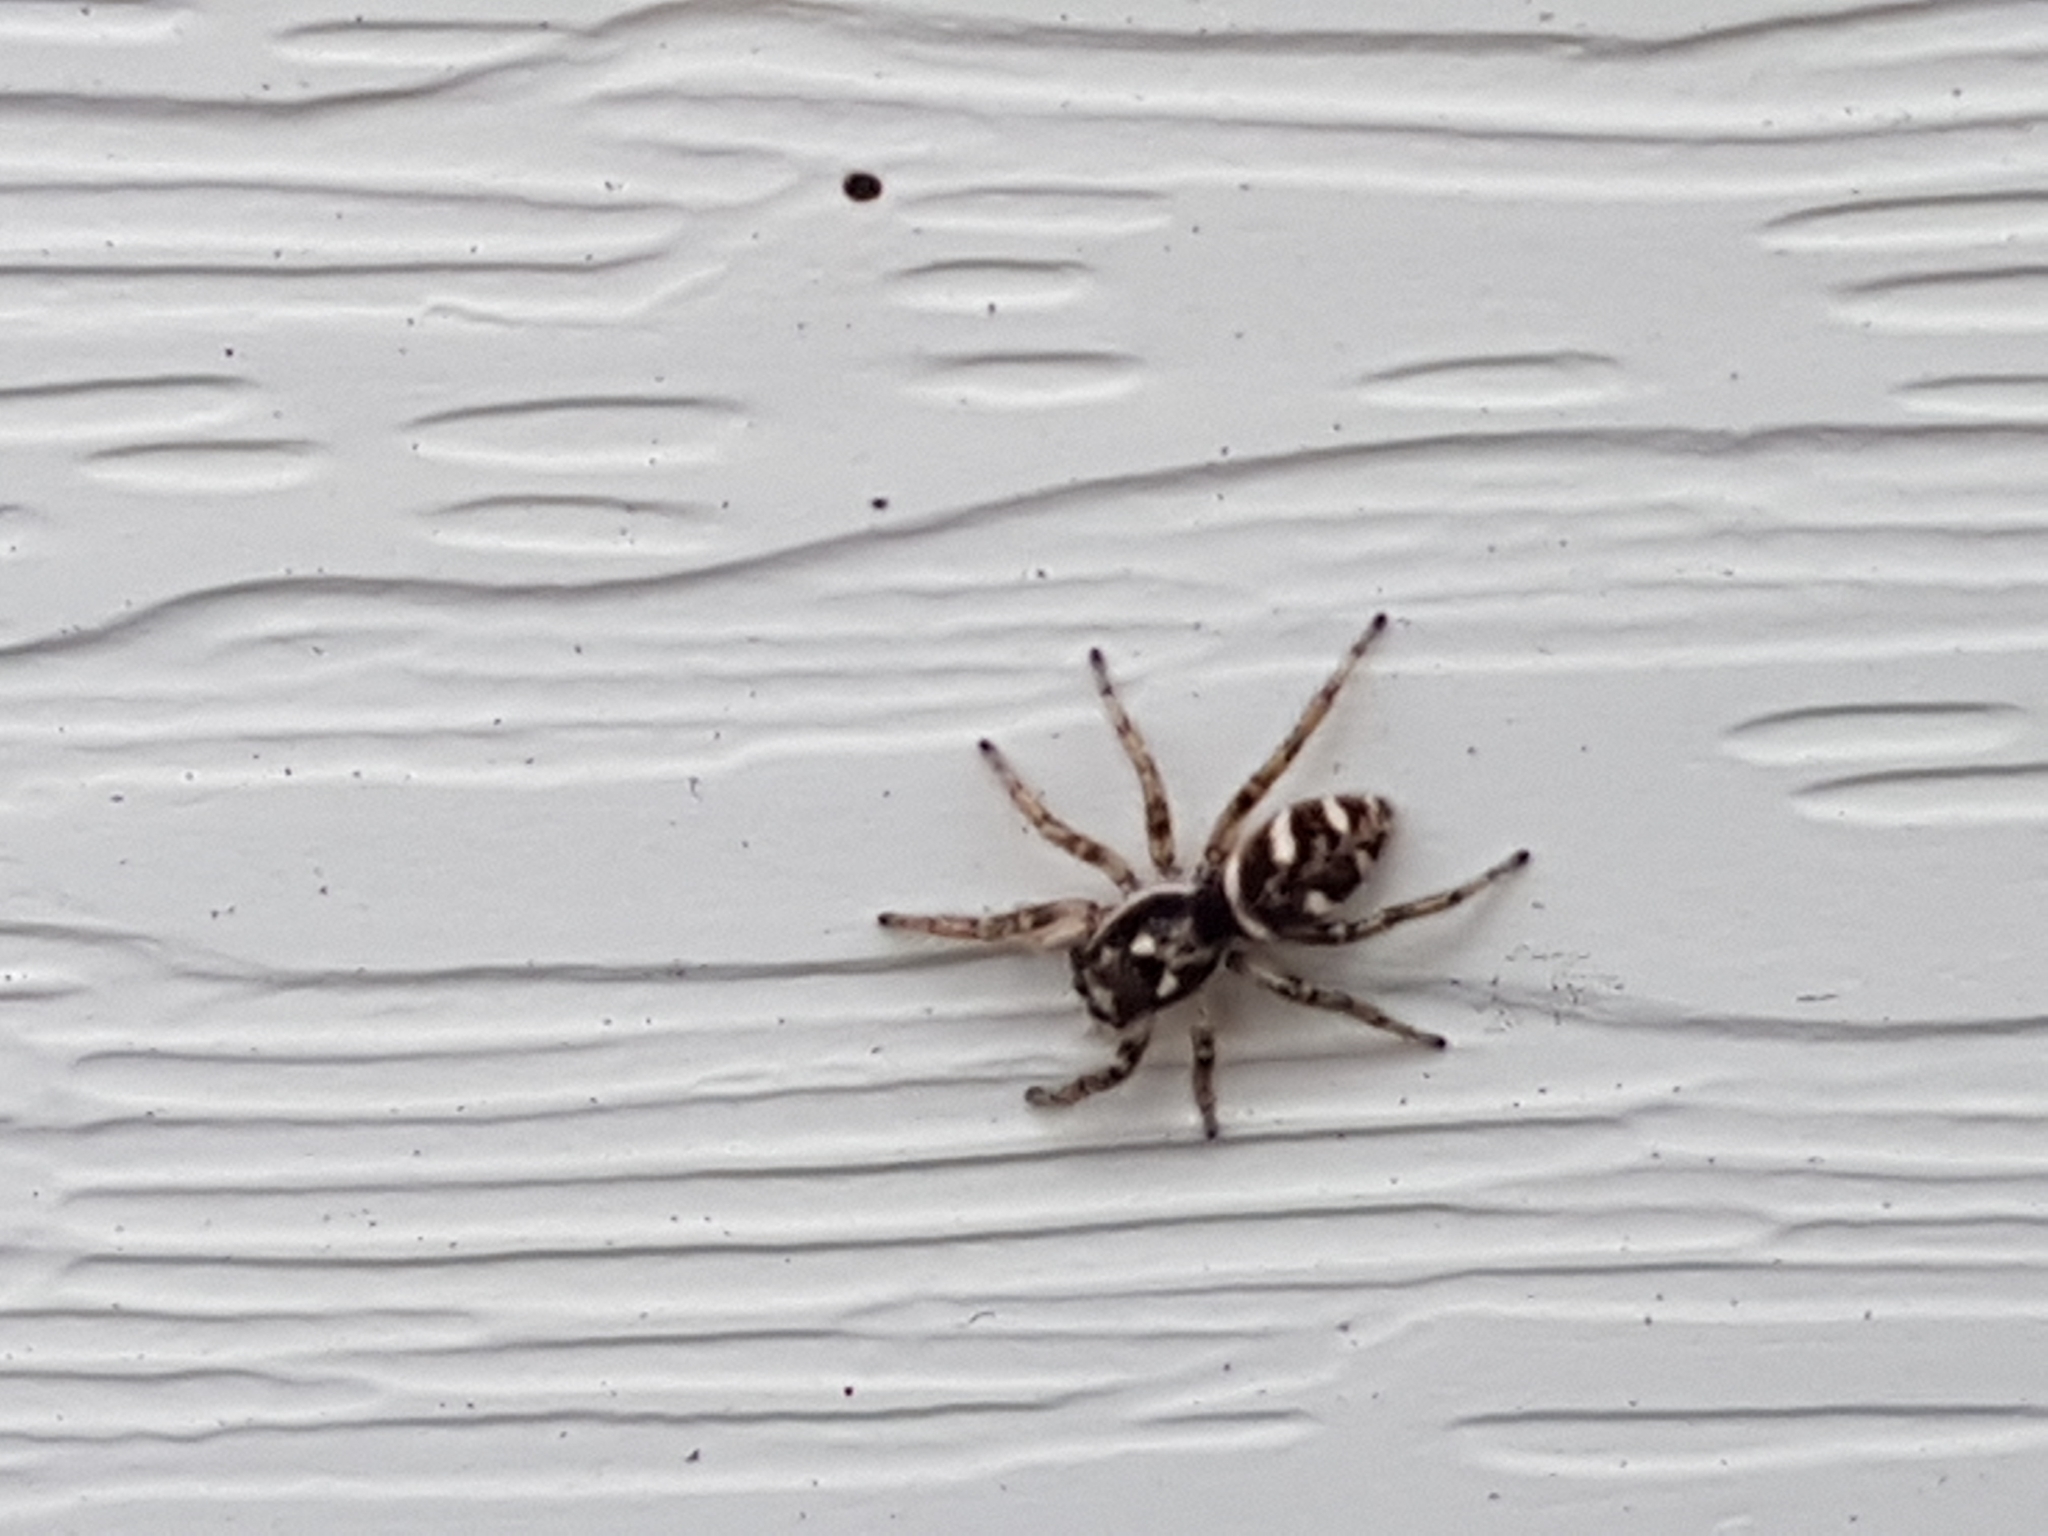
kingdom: Animalia
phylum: Arthropoda
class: Arachnida
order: Araneae
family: Salticidae
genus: Salticus
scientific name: Salticus scenicus
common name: Zebra jumper
